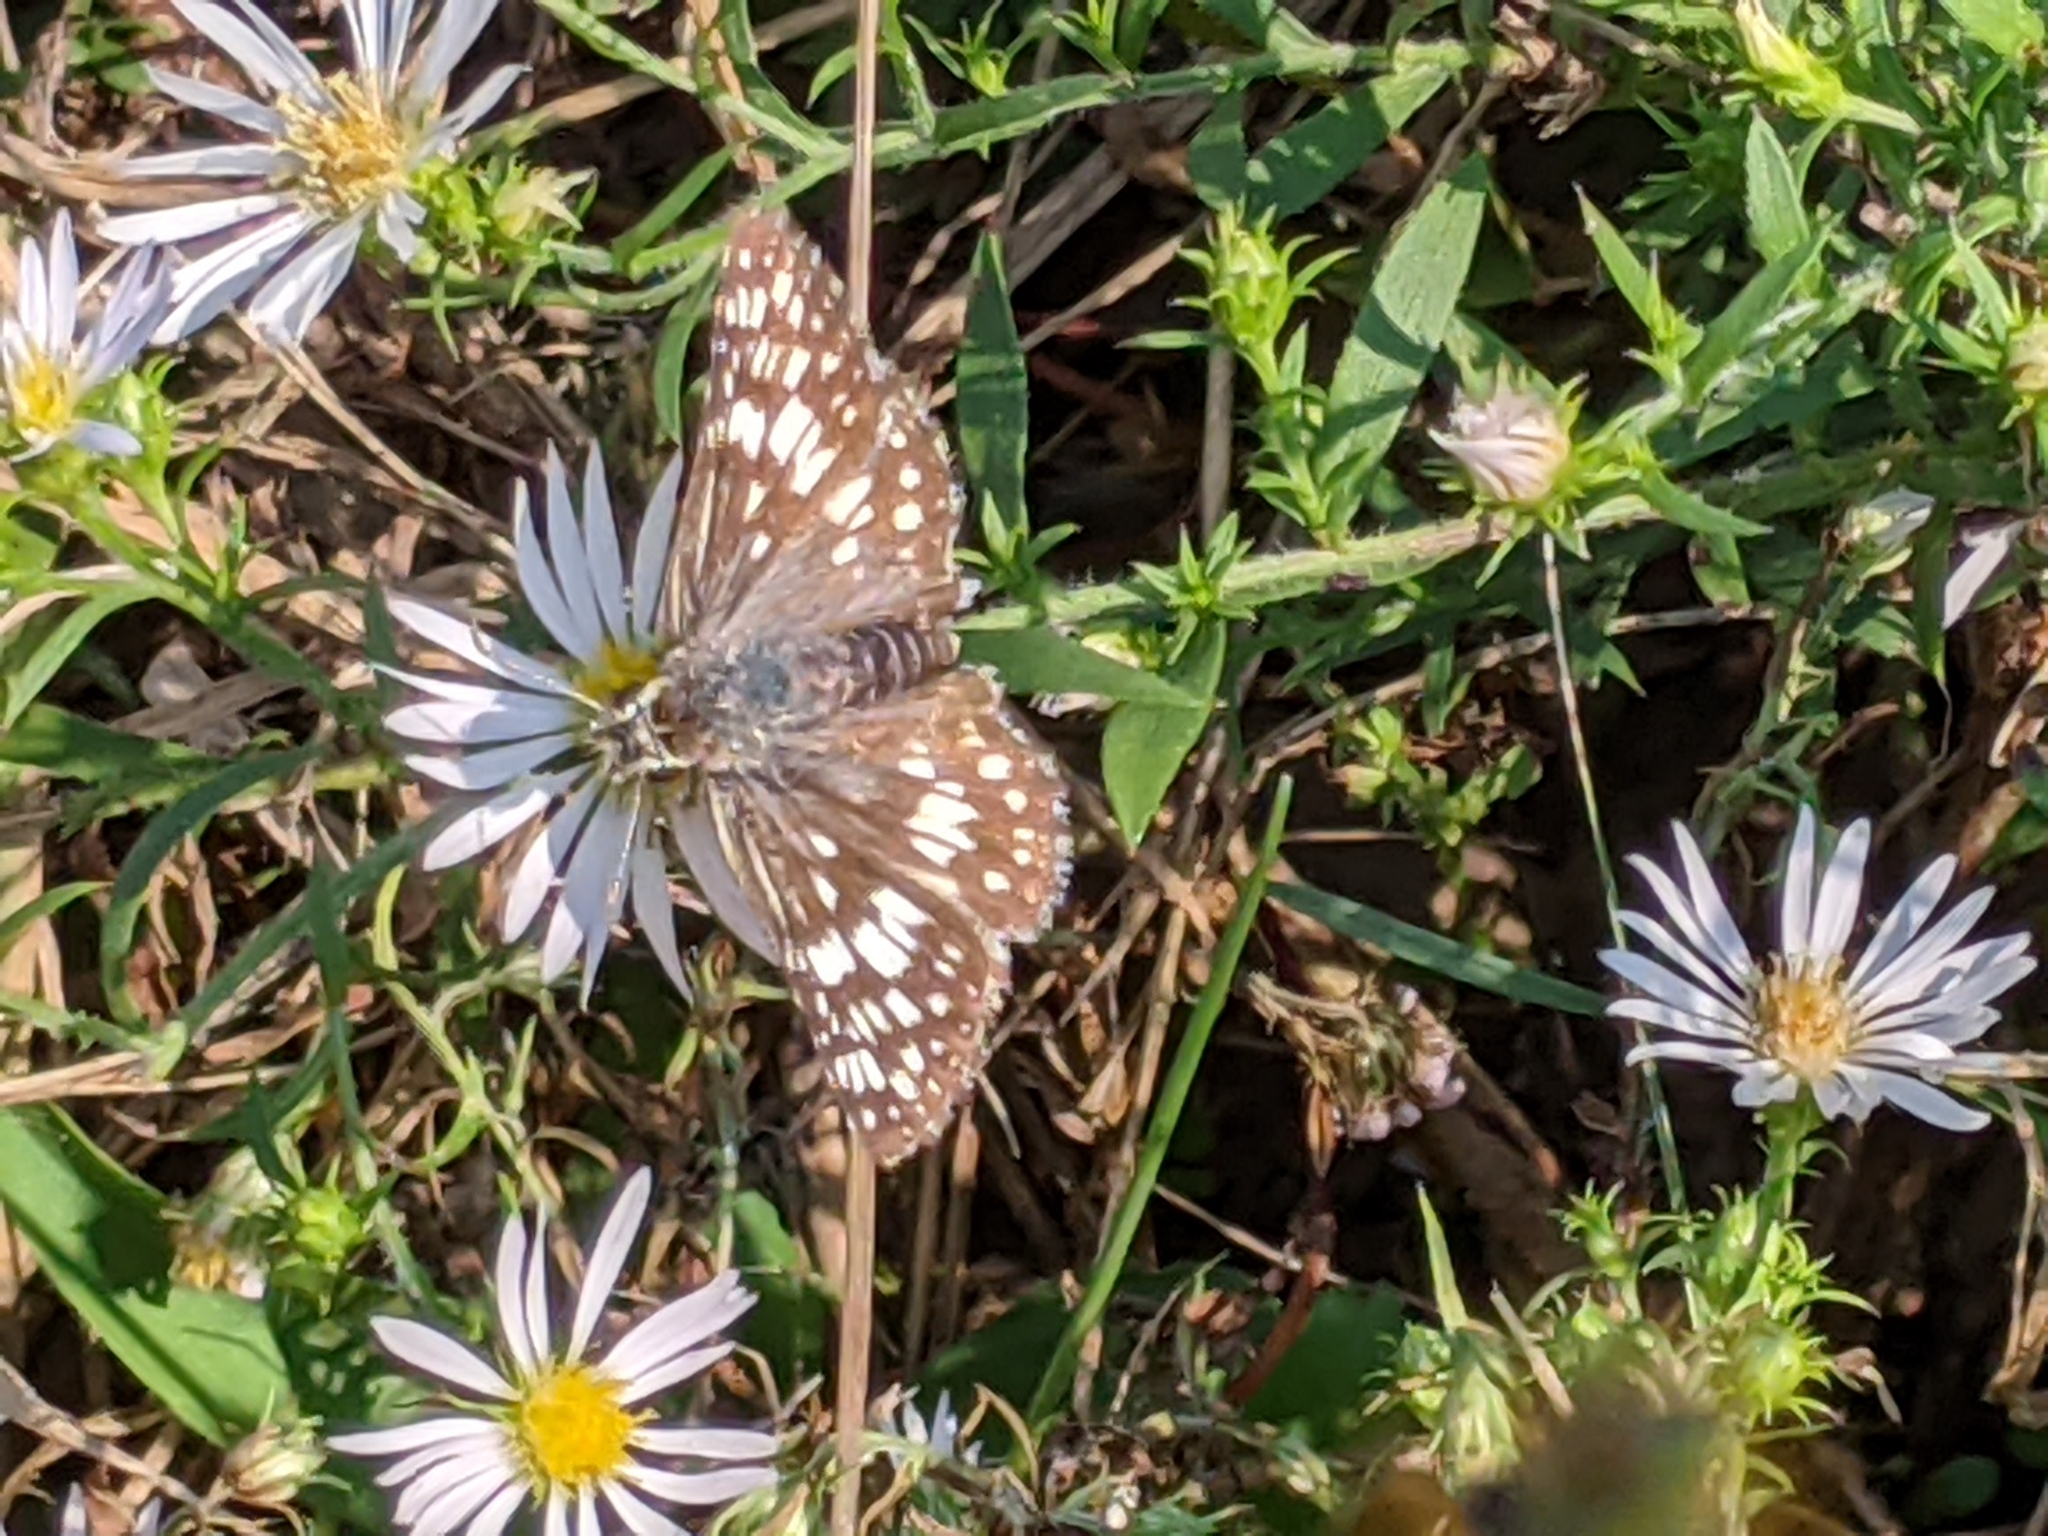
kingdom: Animalia
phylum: Arthropoda
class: Insecta
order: Lepidoptera
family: Hesperiidae
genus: Burnsius
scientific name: Burnsius communis
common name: Common checkered-skipper
